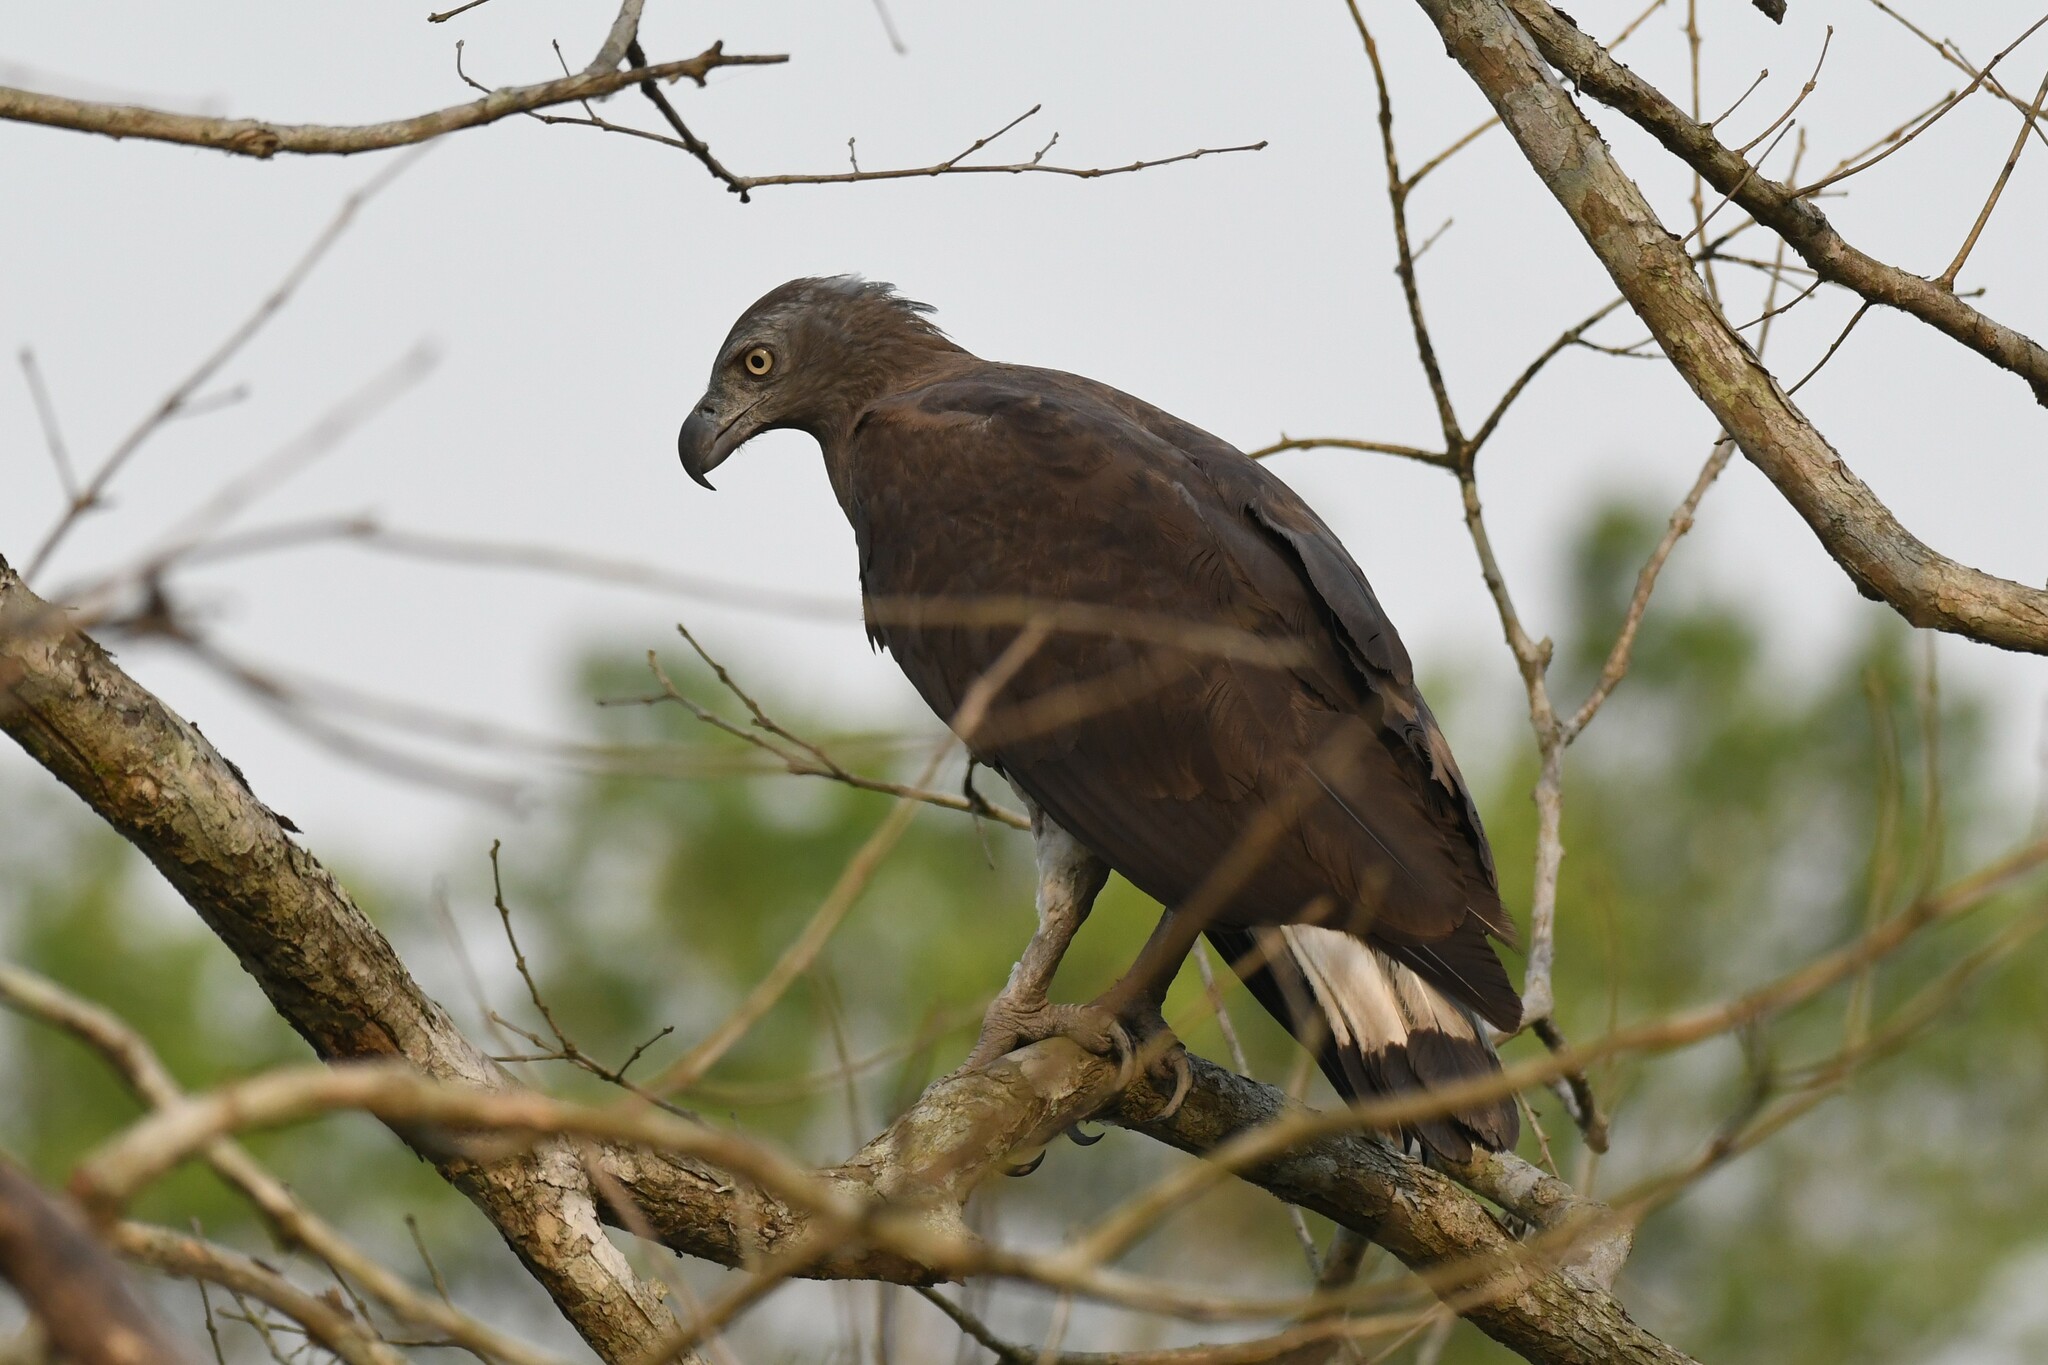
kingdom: Animalia
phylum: Chordata
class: Aves
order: Accipitriformes
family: Accipitridae
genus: Icthyophaga
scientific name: Icthyophaga ichthyaetus
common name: Grey-headed fish eagle
